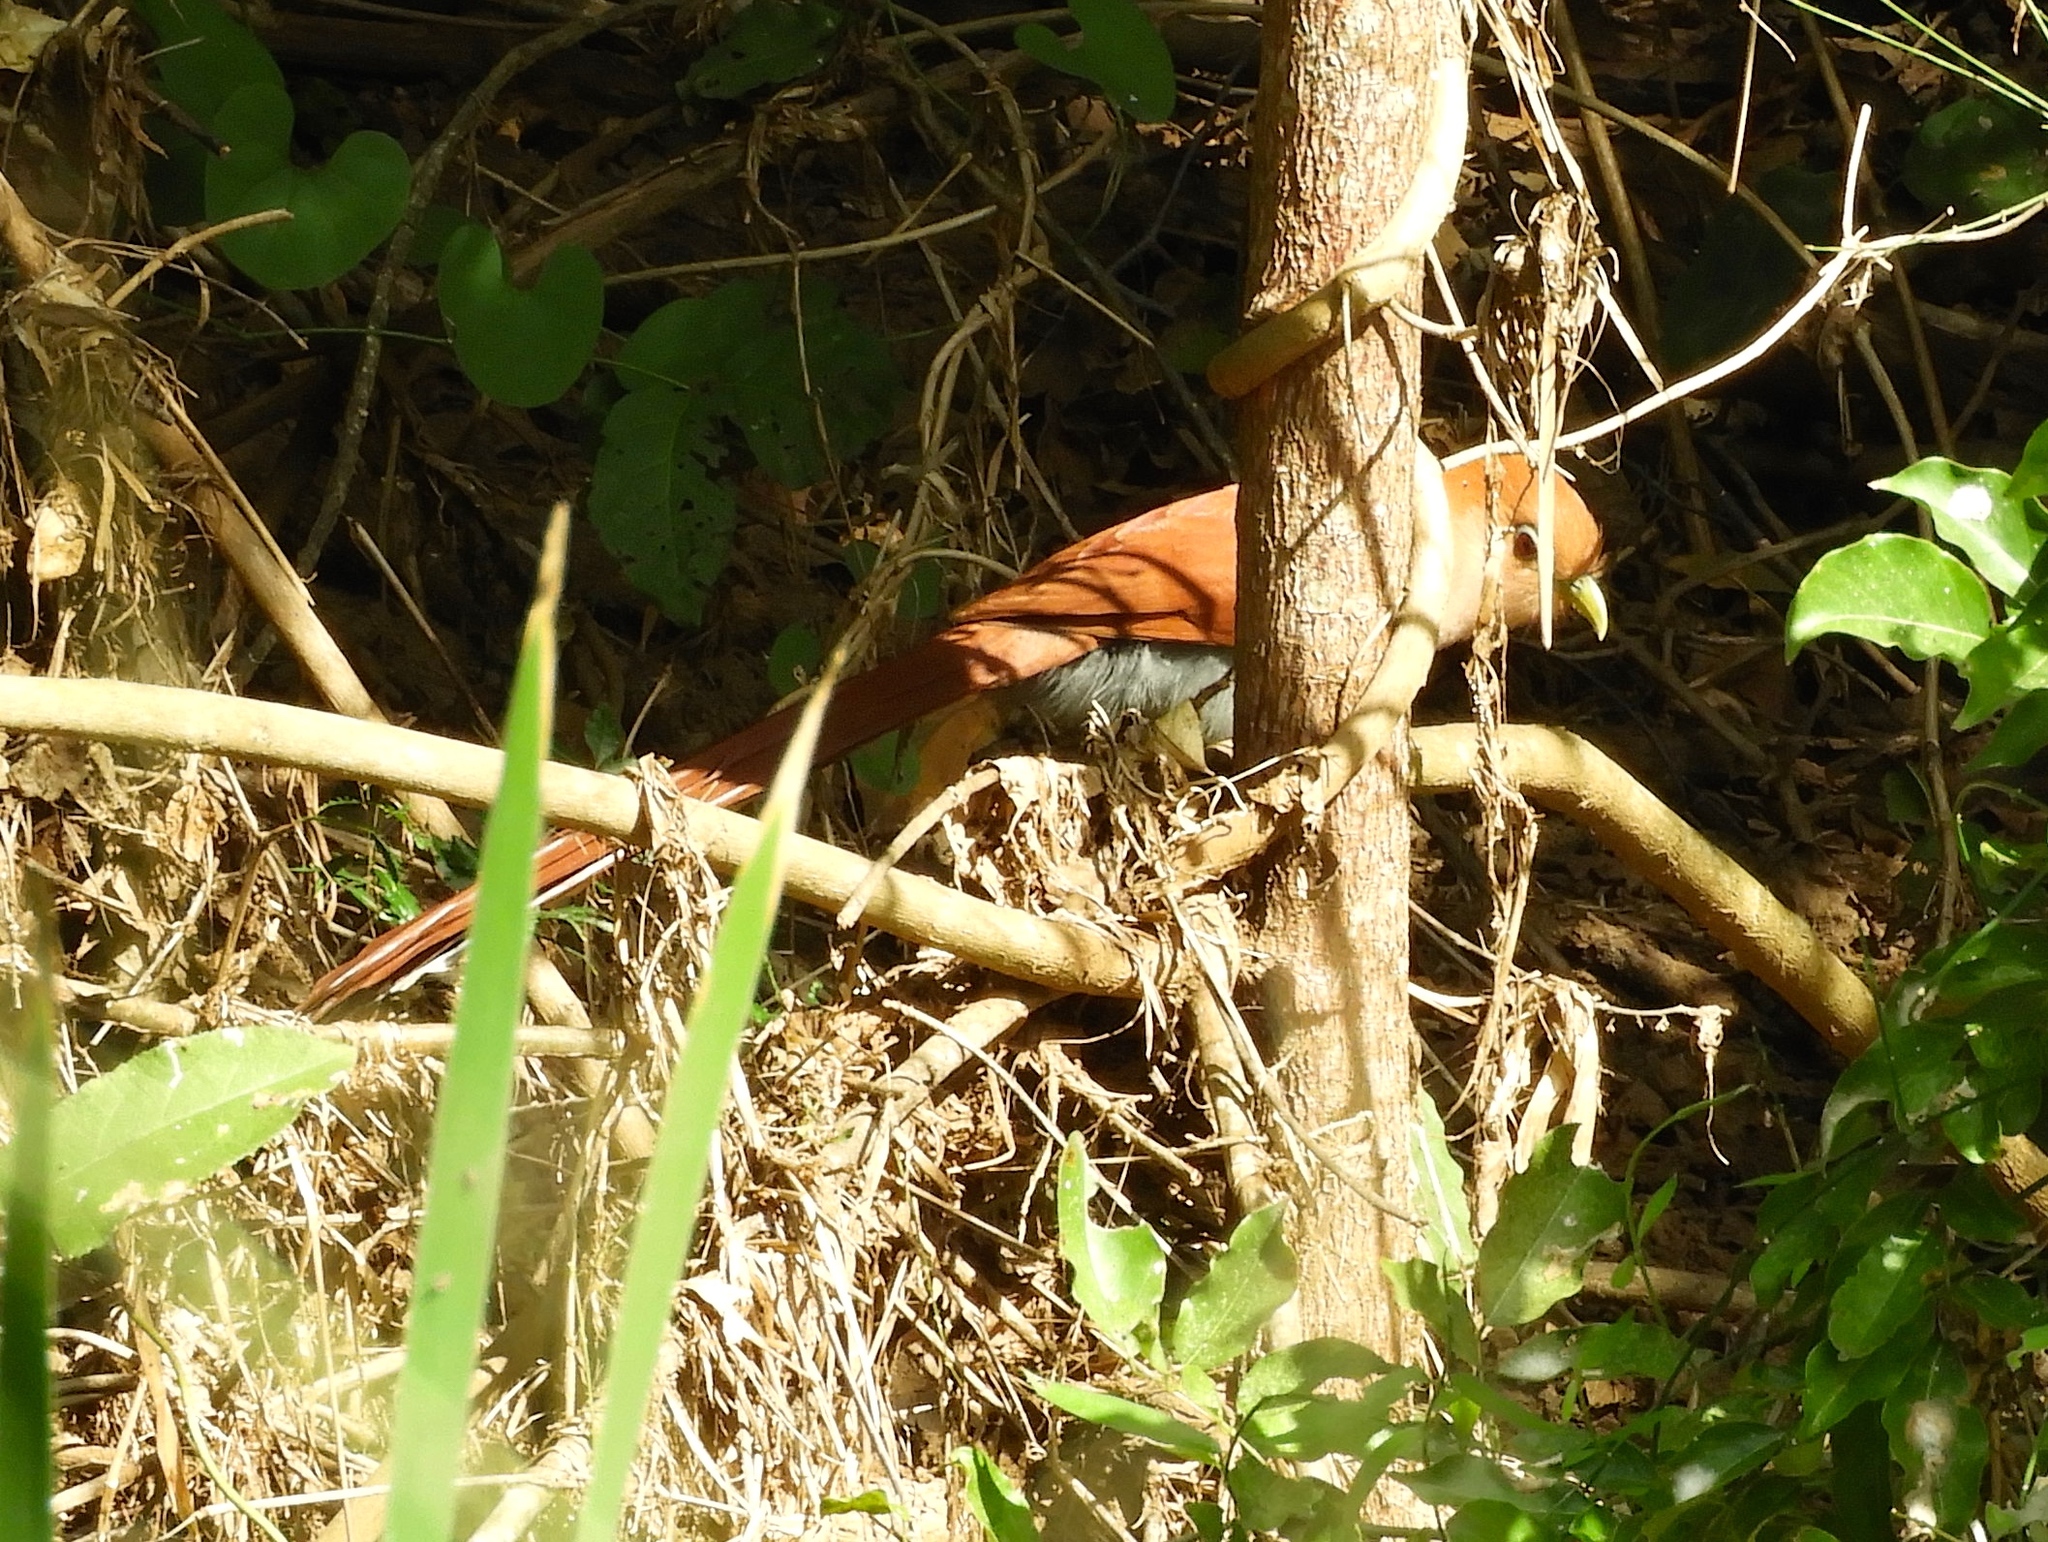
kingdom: Animalia
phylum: Chordata
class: Aves
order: Cuculiformes
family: Cuculidae
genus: Piaya
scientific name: Piaya cayana
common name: Squirrel cuckoo
